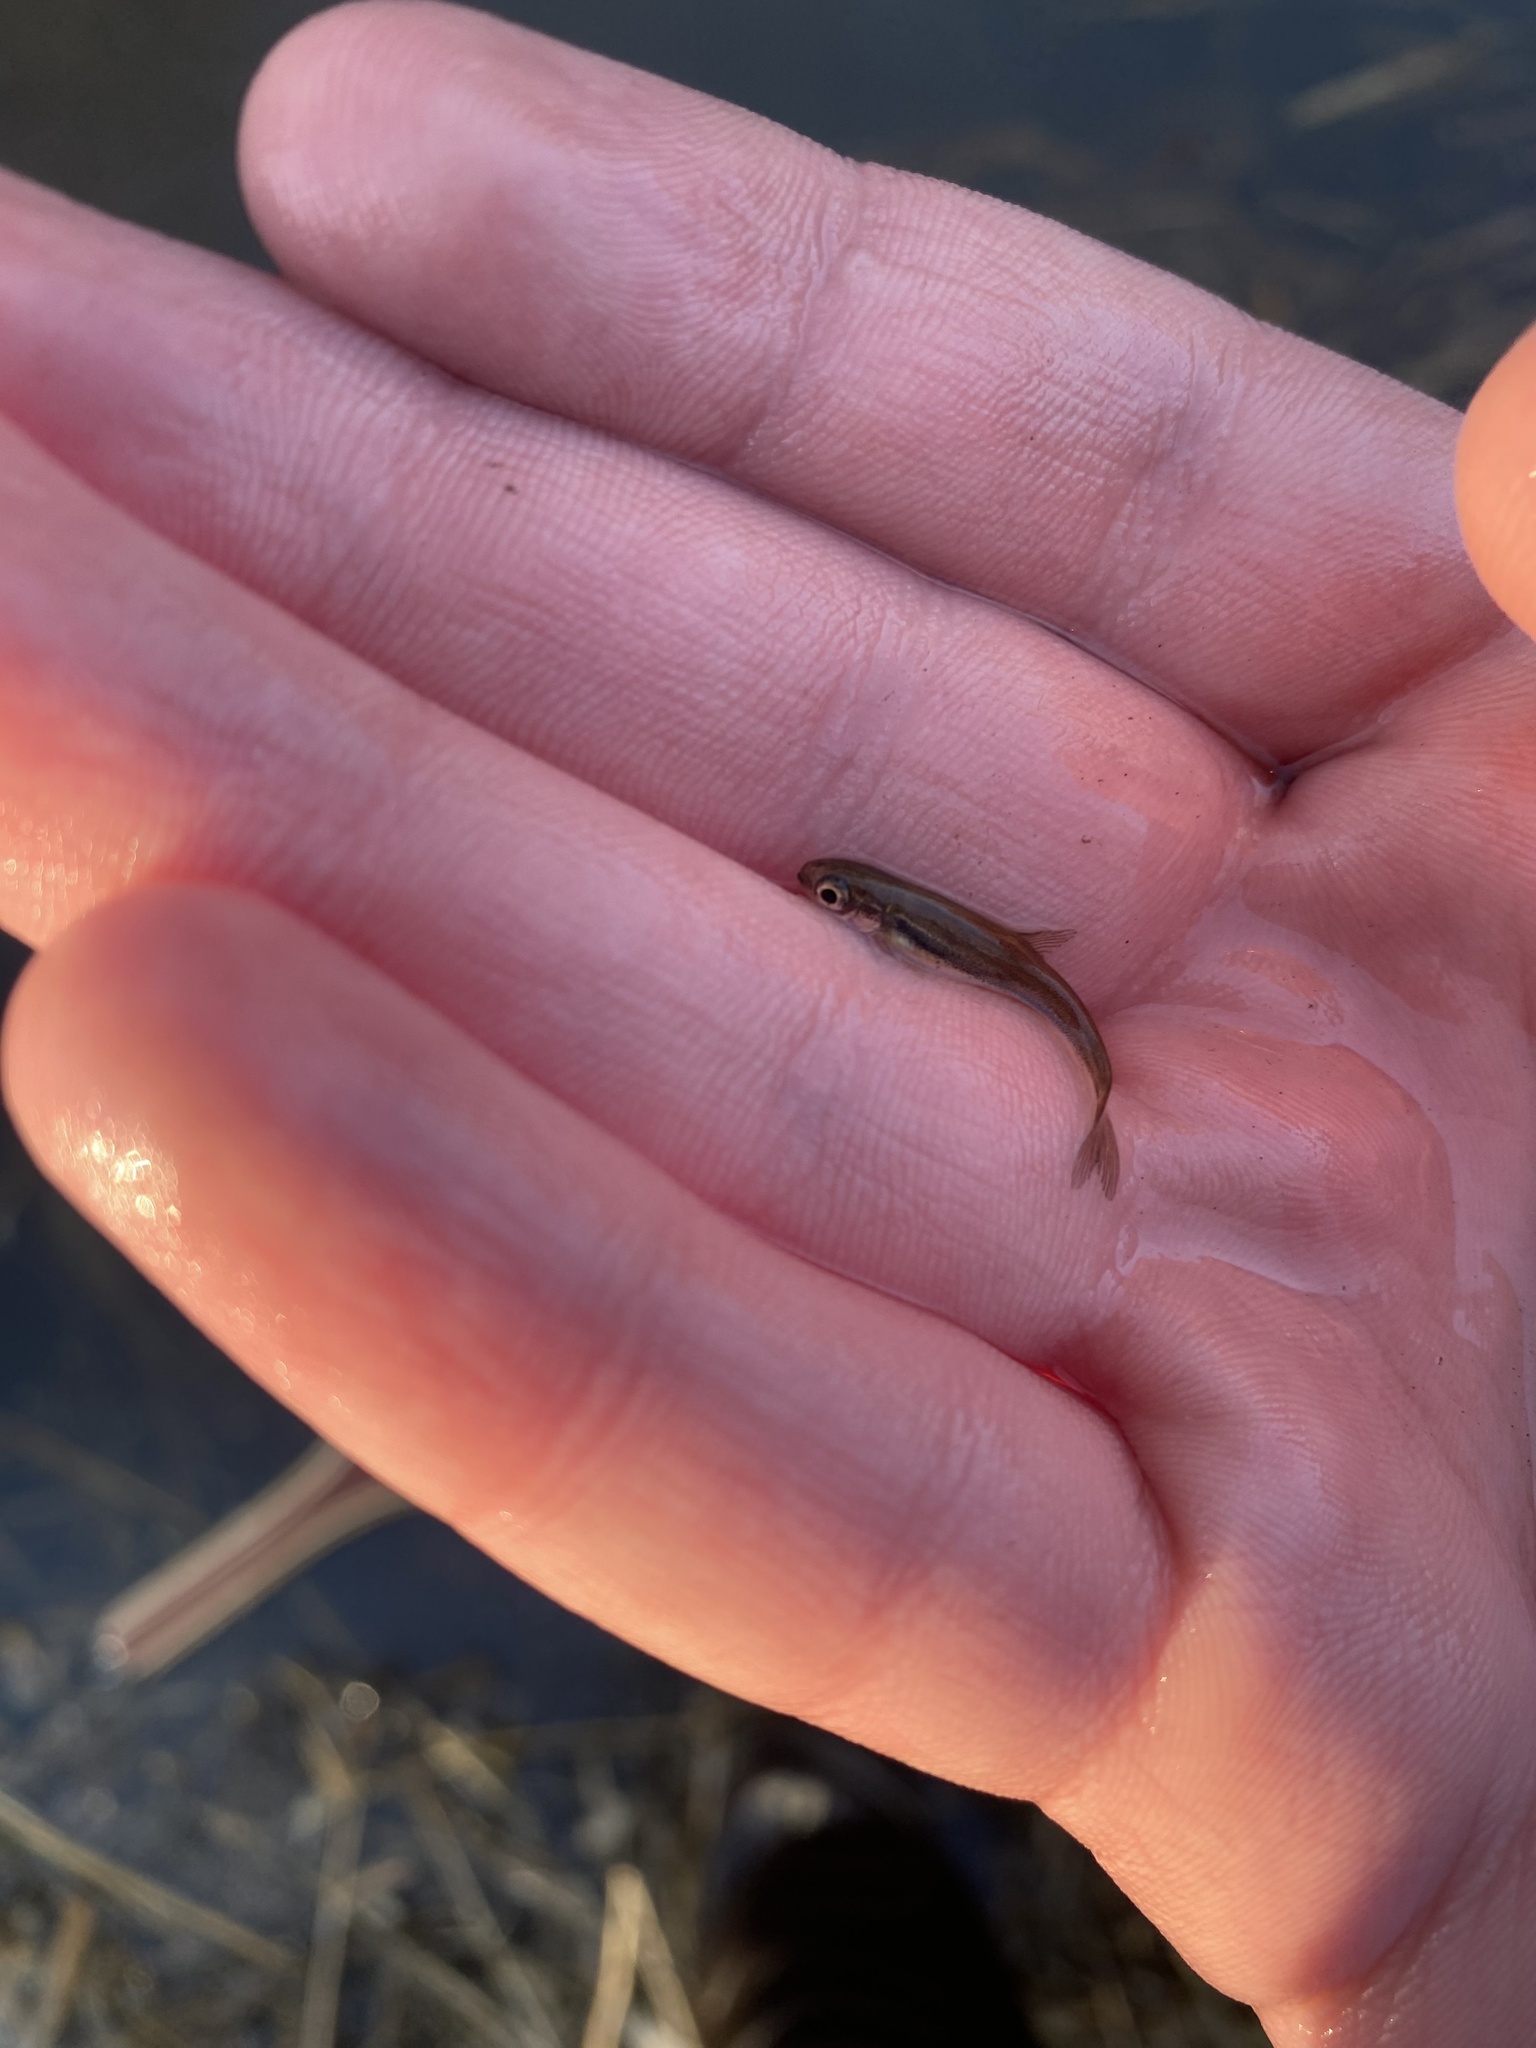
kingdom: Animalia
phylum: Chordata
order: Cypriniformes
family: Cyprinidae
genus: Chrosomus
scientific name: Chrosomus erythrogaster
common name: Southern redbelly dace
